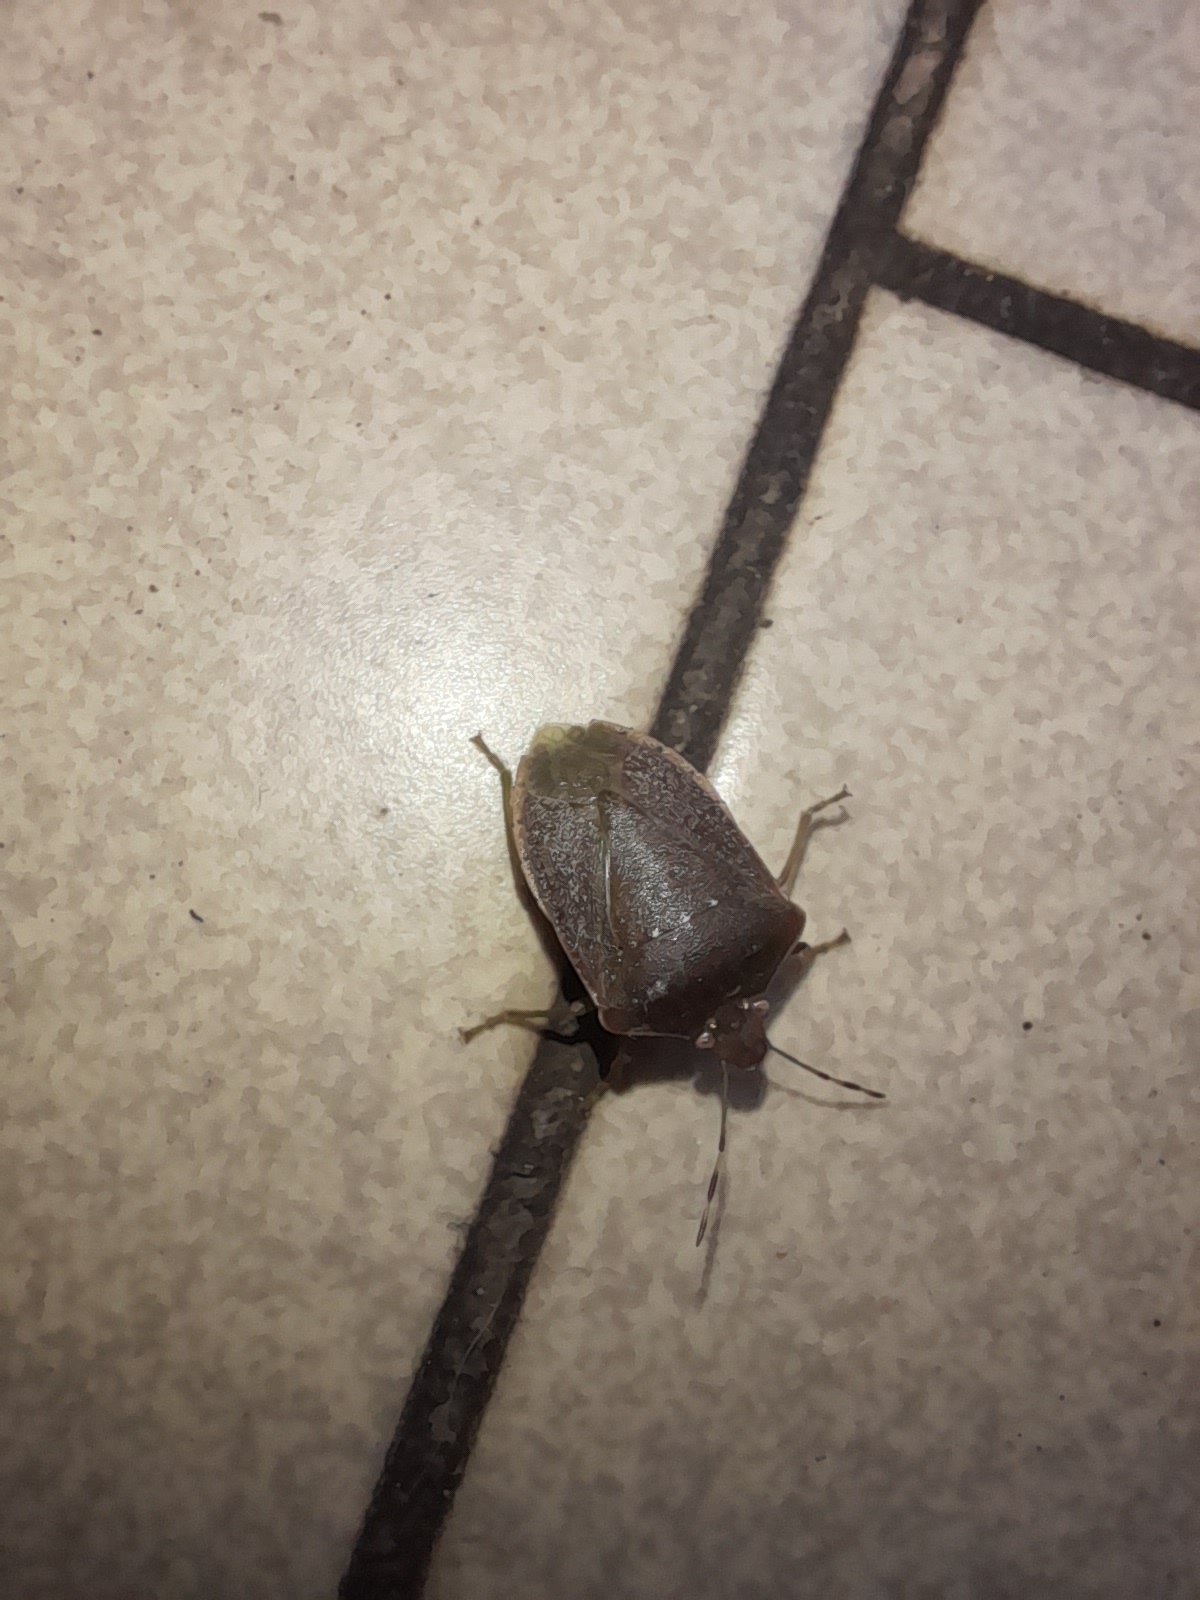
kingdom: Animalia
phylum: Arthropoda
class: Insecta
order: Hemiptera
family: Pentatomidae
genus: Nezara
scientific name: Nezara viridula
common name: Southern green stink bug
